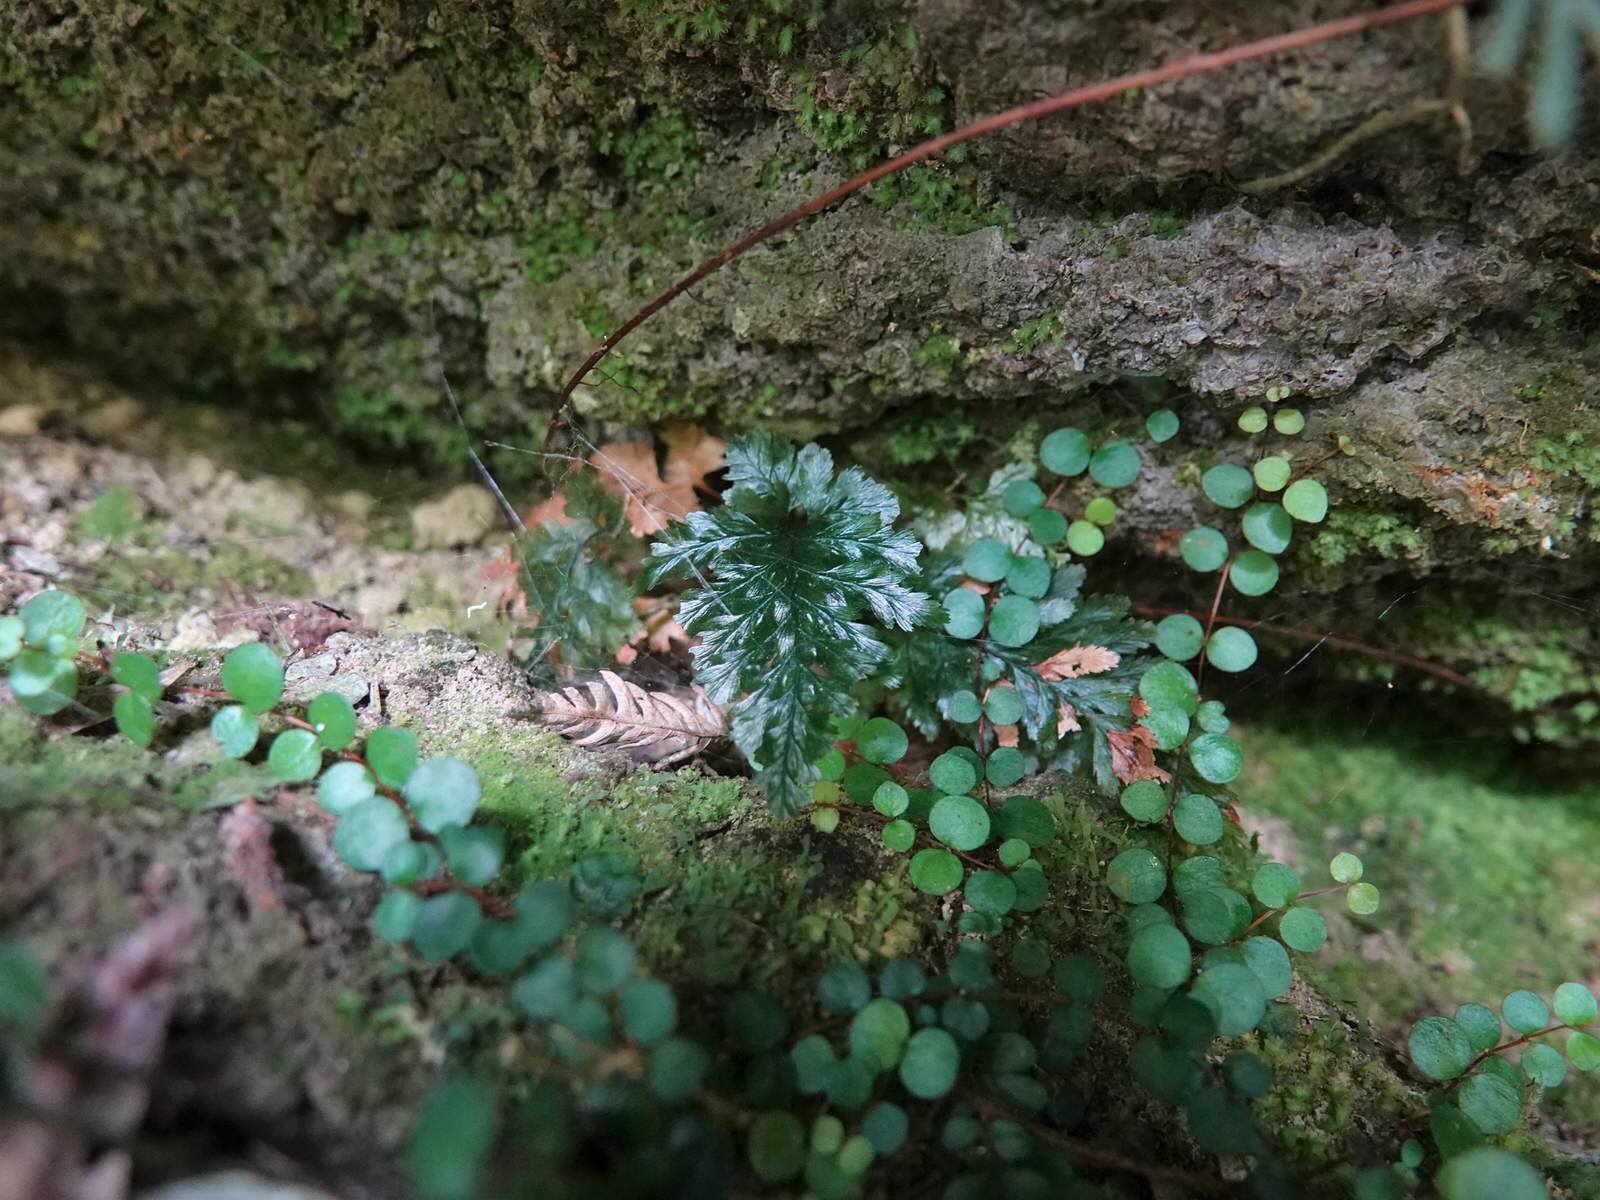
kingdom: Plantae
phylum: Tracheophyta
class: Polypodiopsida
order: Hymenophyllales
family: Hymenophyllaceae
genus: Abrodictyum
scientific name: Abrodictyum elongatum
